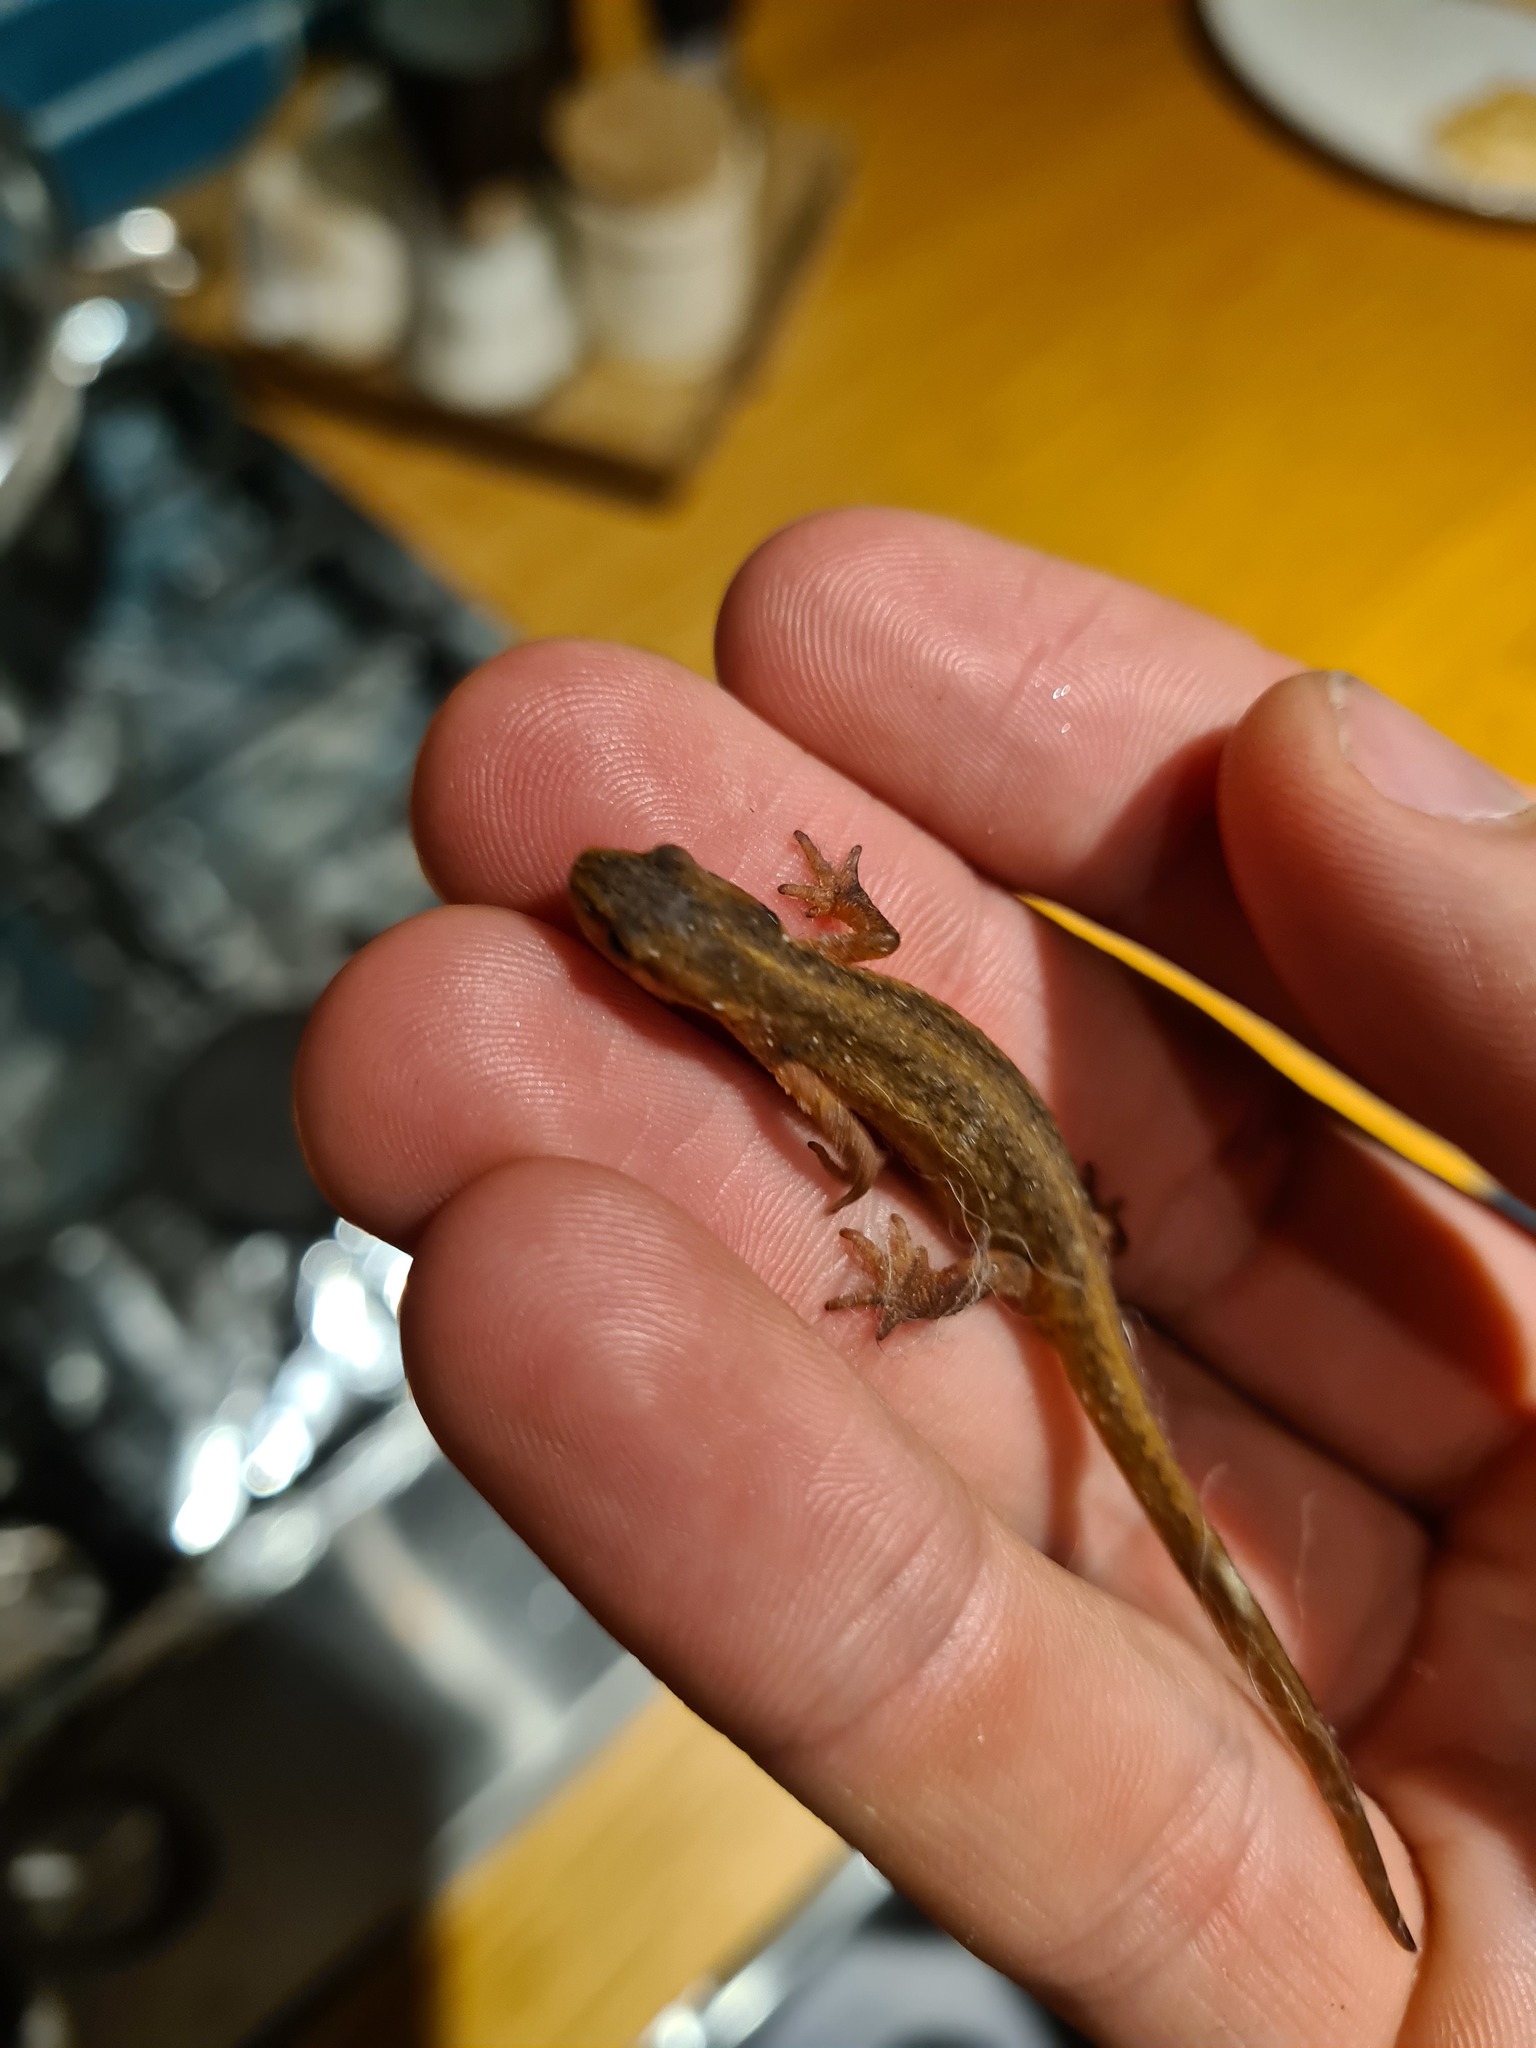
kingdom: Animalia
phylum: Chordata
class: Amphibia
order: Caudata
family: Salamandridae
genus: Lissotriton
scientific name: Lissotriton vulgaris
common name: Smooth newt
